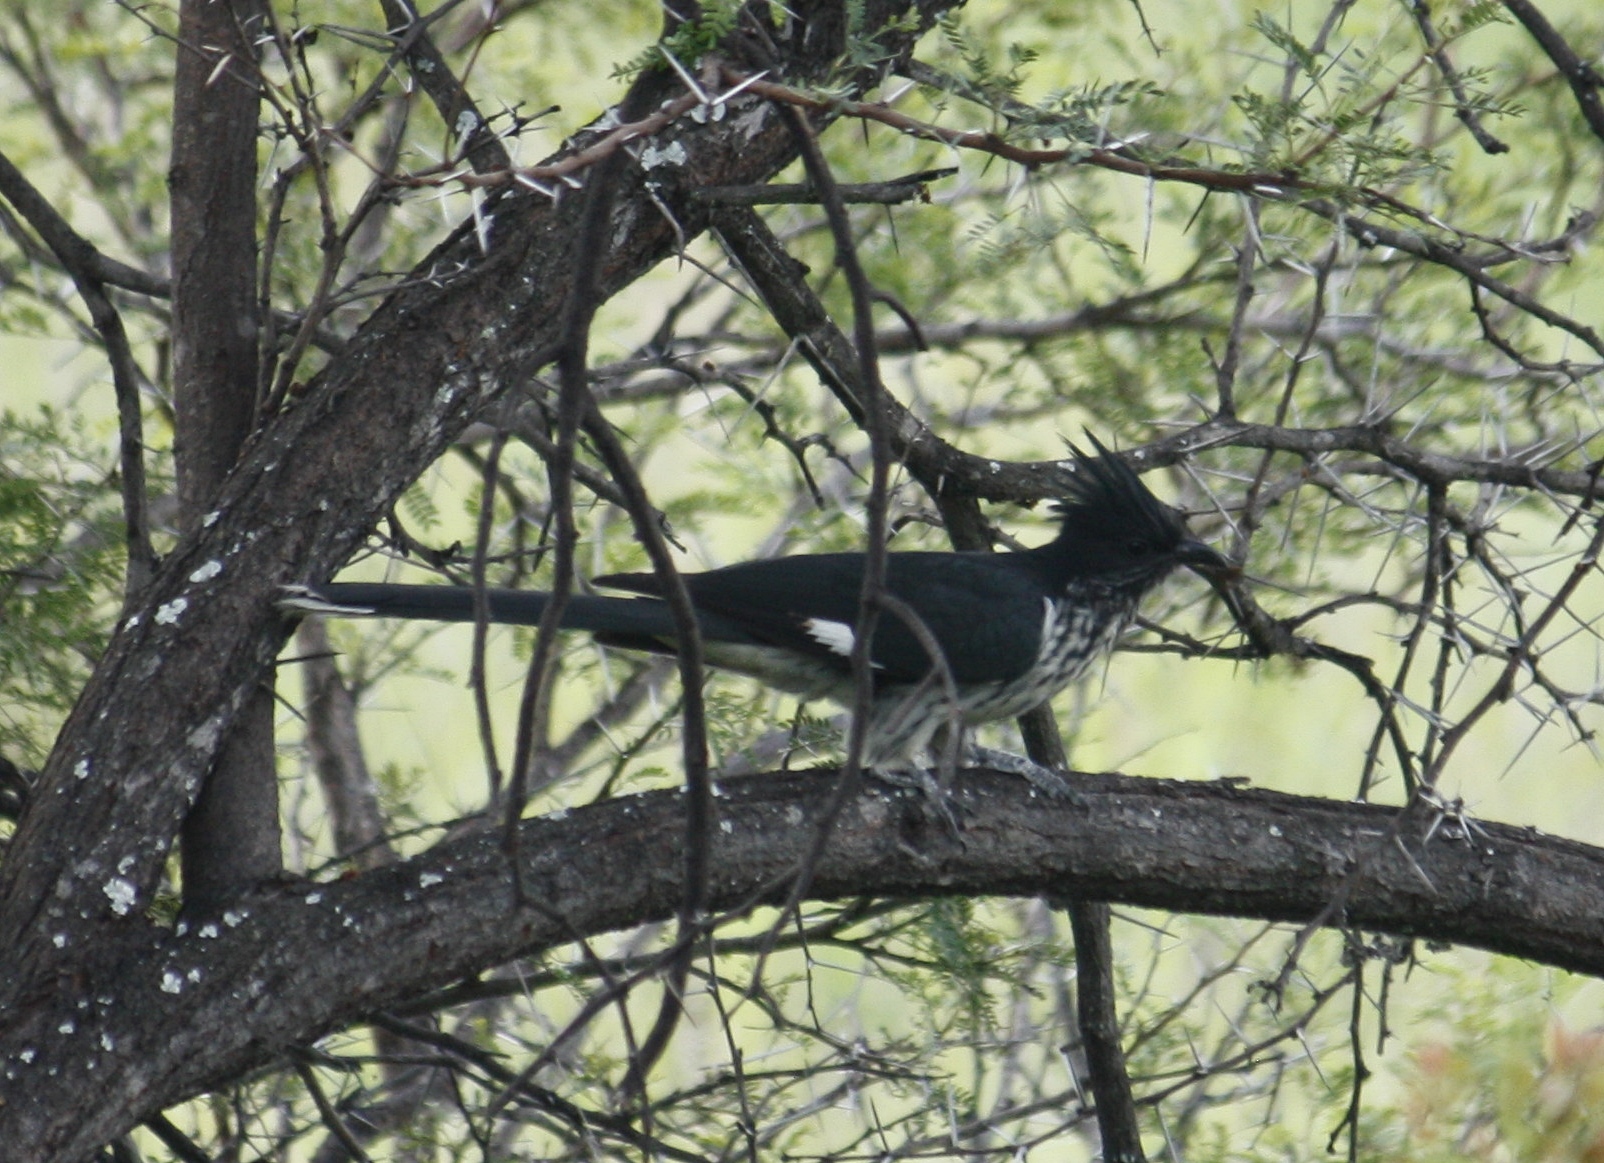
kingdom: Animalia
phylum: Chordata
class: Aves
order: Cuculiformes
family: Cuculidae
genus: Clamator
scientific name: Clamator levaillantii
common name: Levaillant's cuckoo
